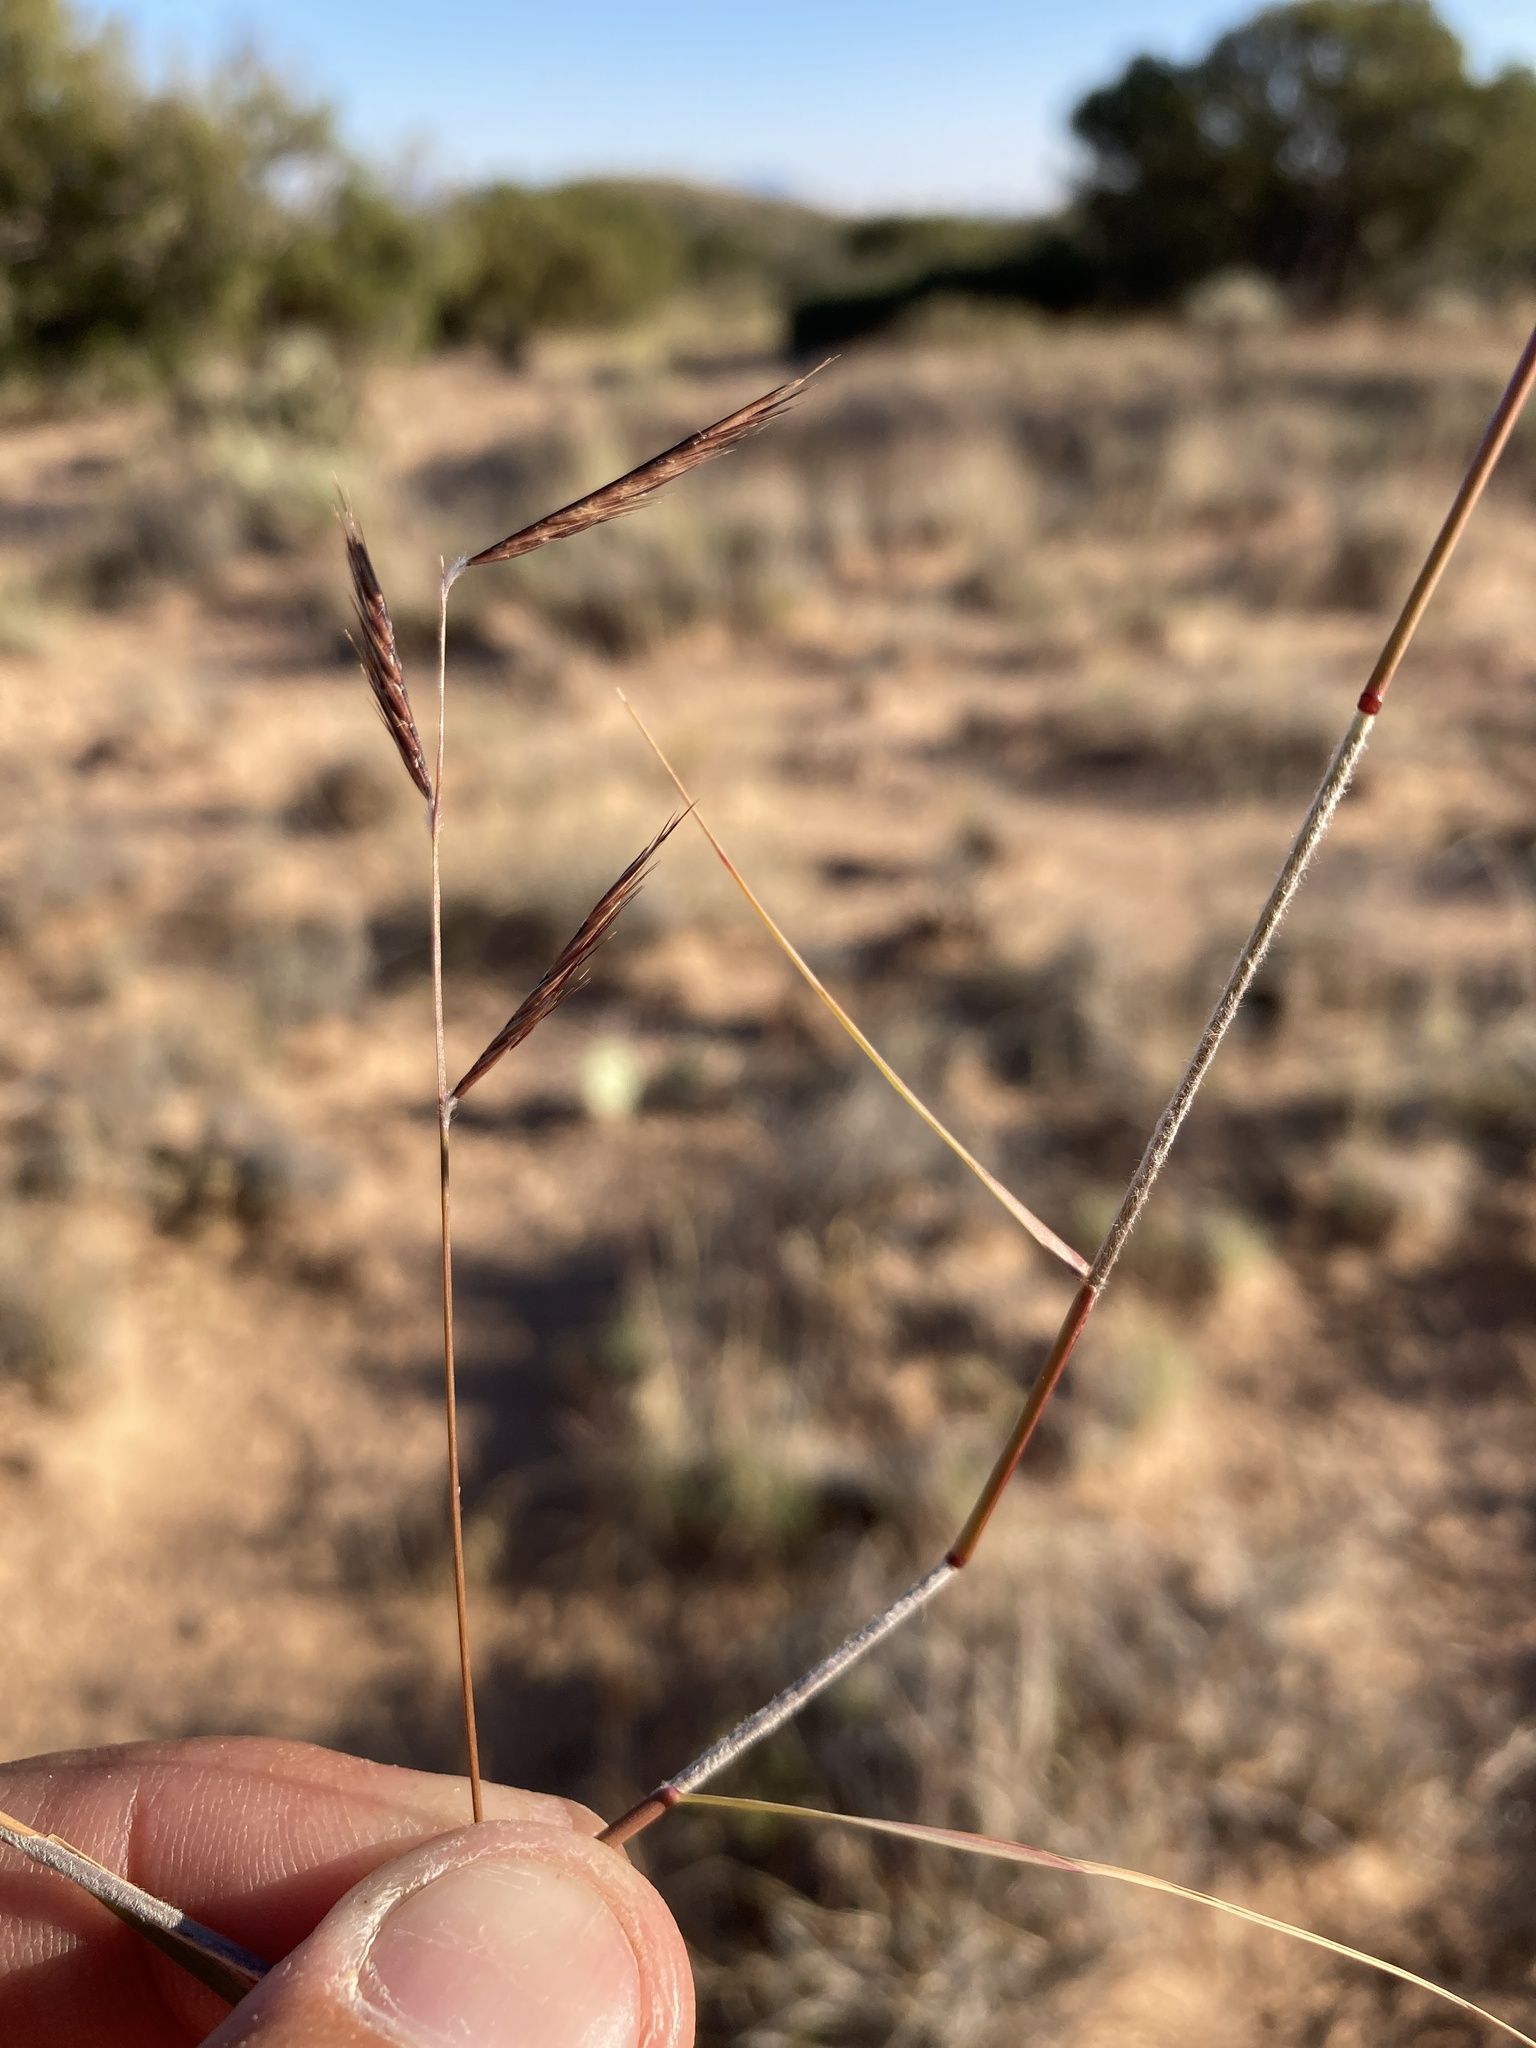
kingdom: Plantae
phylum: Tracheophyta
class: Liliopsida
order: Poales
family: Poaceae
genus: Bouteloua
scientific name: Bouteloua eriopoda
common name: Woolly foot grama
